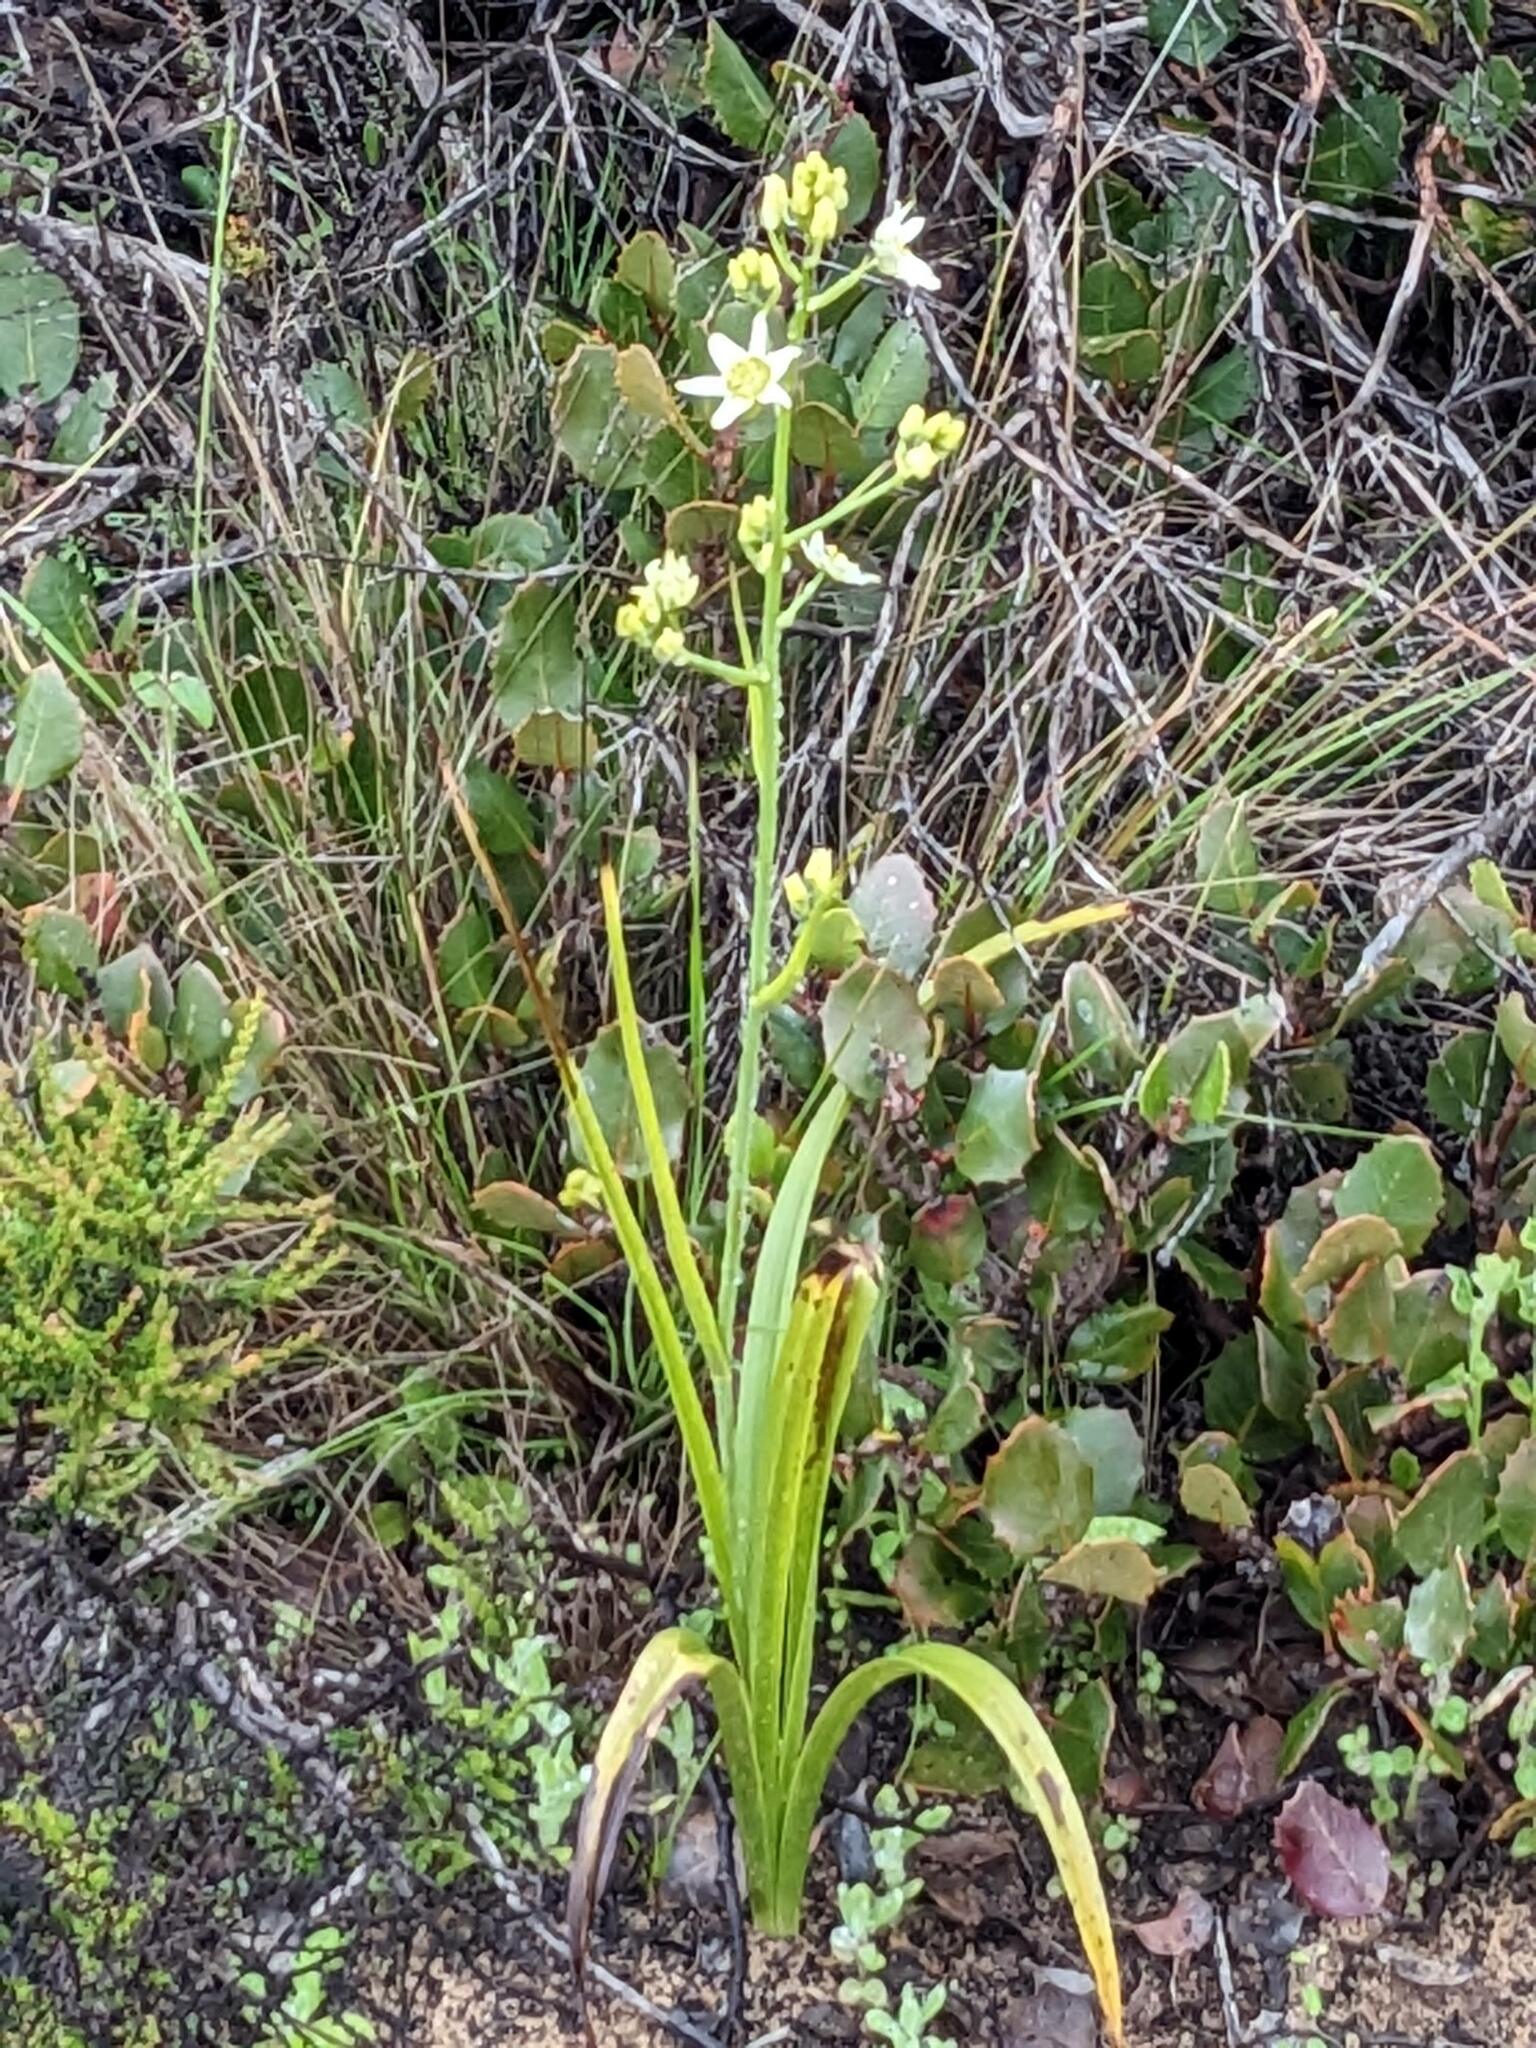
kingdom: Plantae
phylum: Tracheophyta
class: Liliopsida
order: Liliales
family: Melanthiaceae
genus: Toxicoscordion
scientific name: Toxicoscordion fremontii
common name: Fremont's death camas
